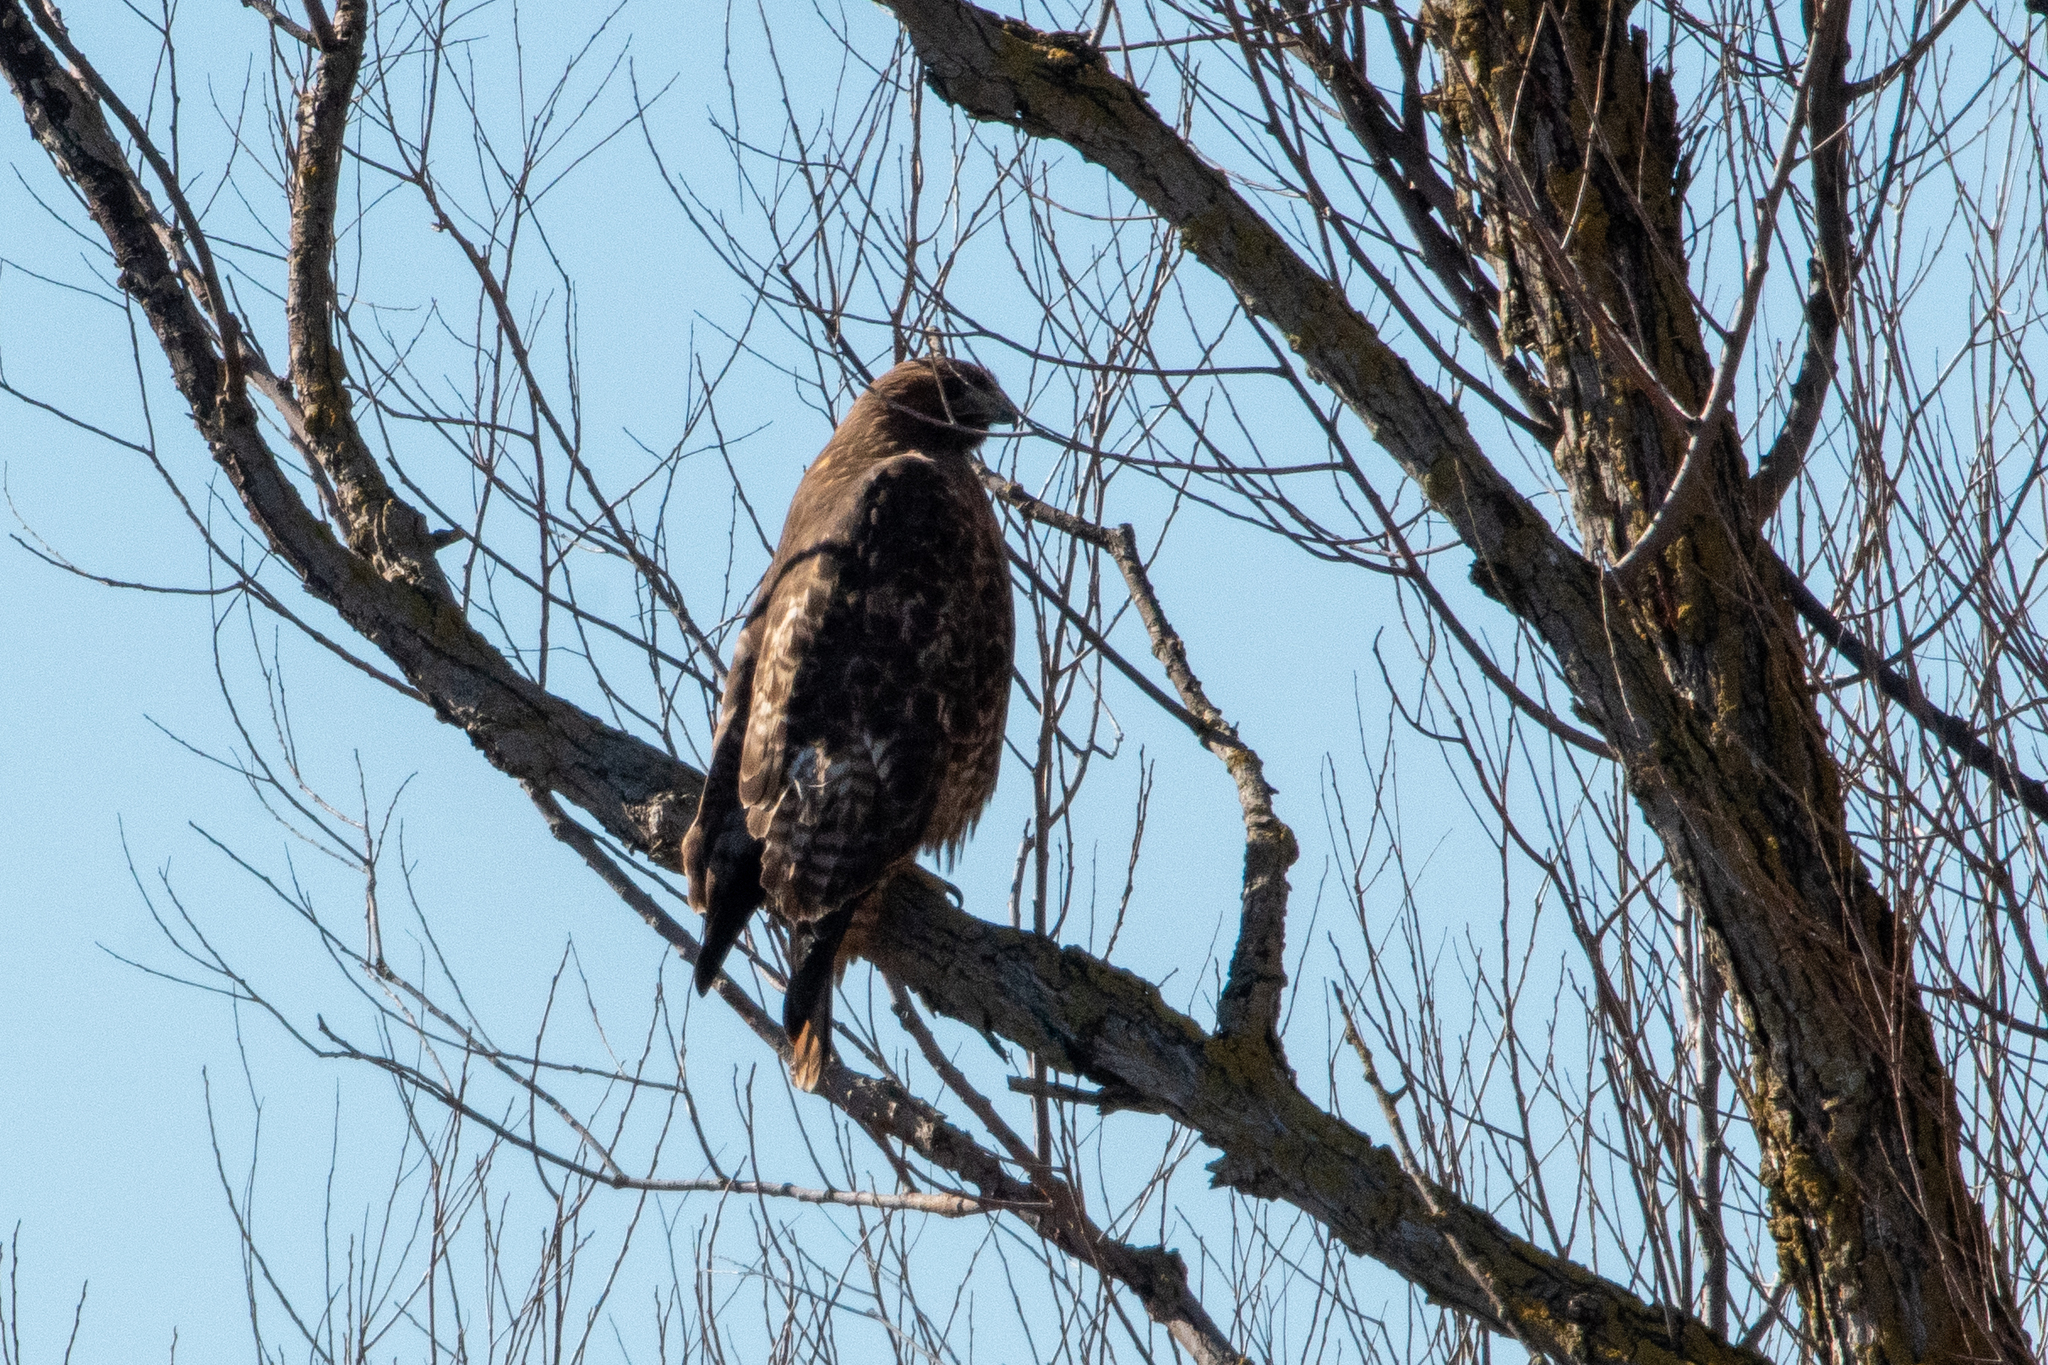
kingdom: Animalia
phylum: Chordata
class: Aves
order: Accipitriformes
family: Accipitridae
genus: Buteo
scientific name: Buteo jamaicensis
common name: Red-tailed hawk
